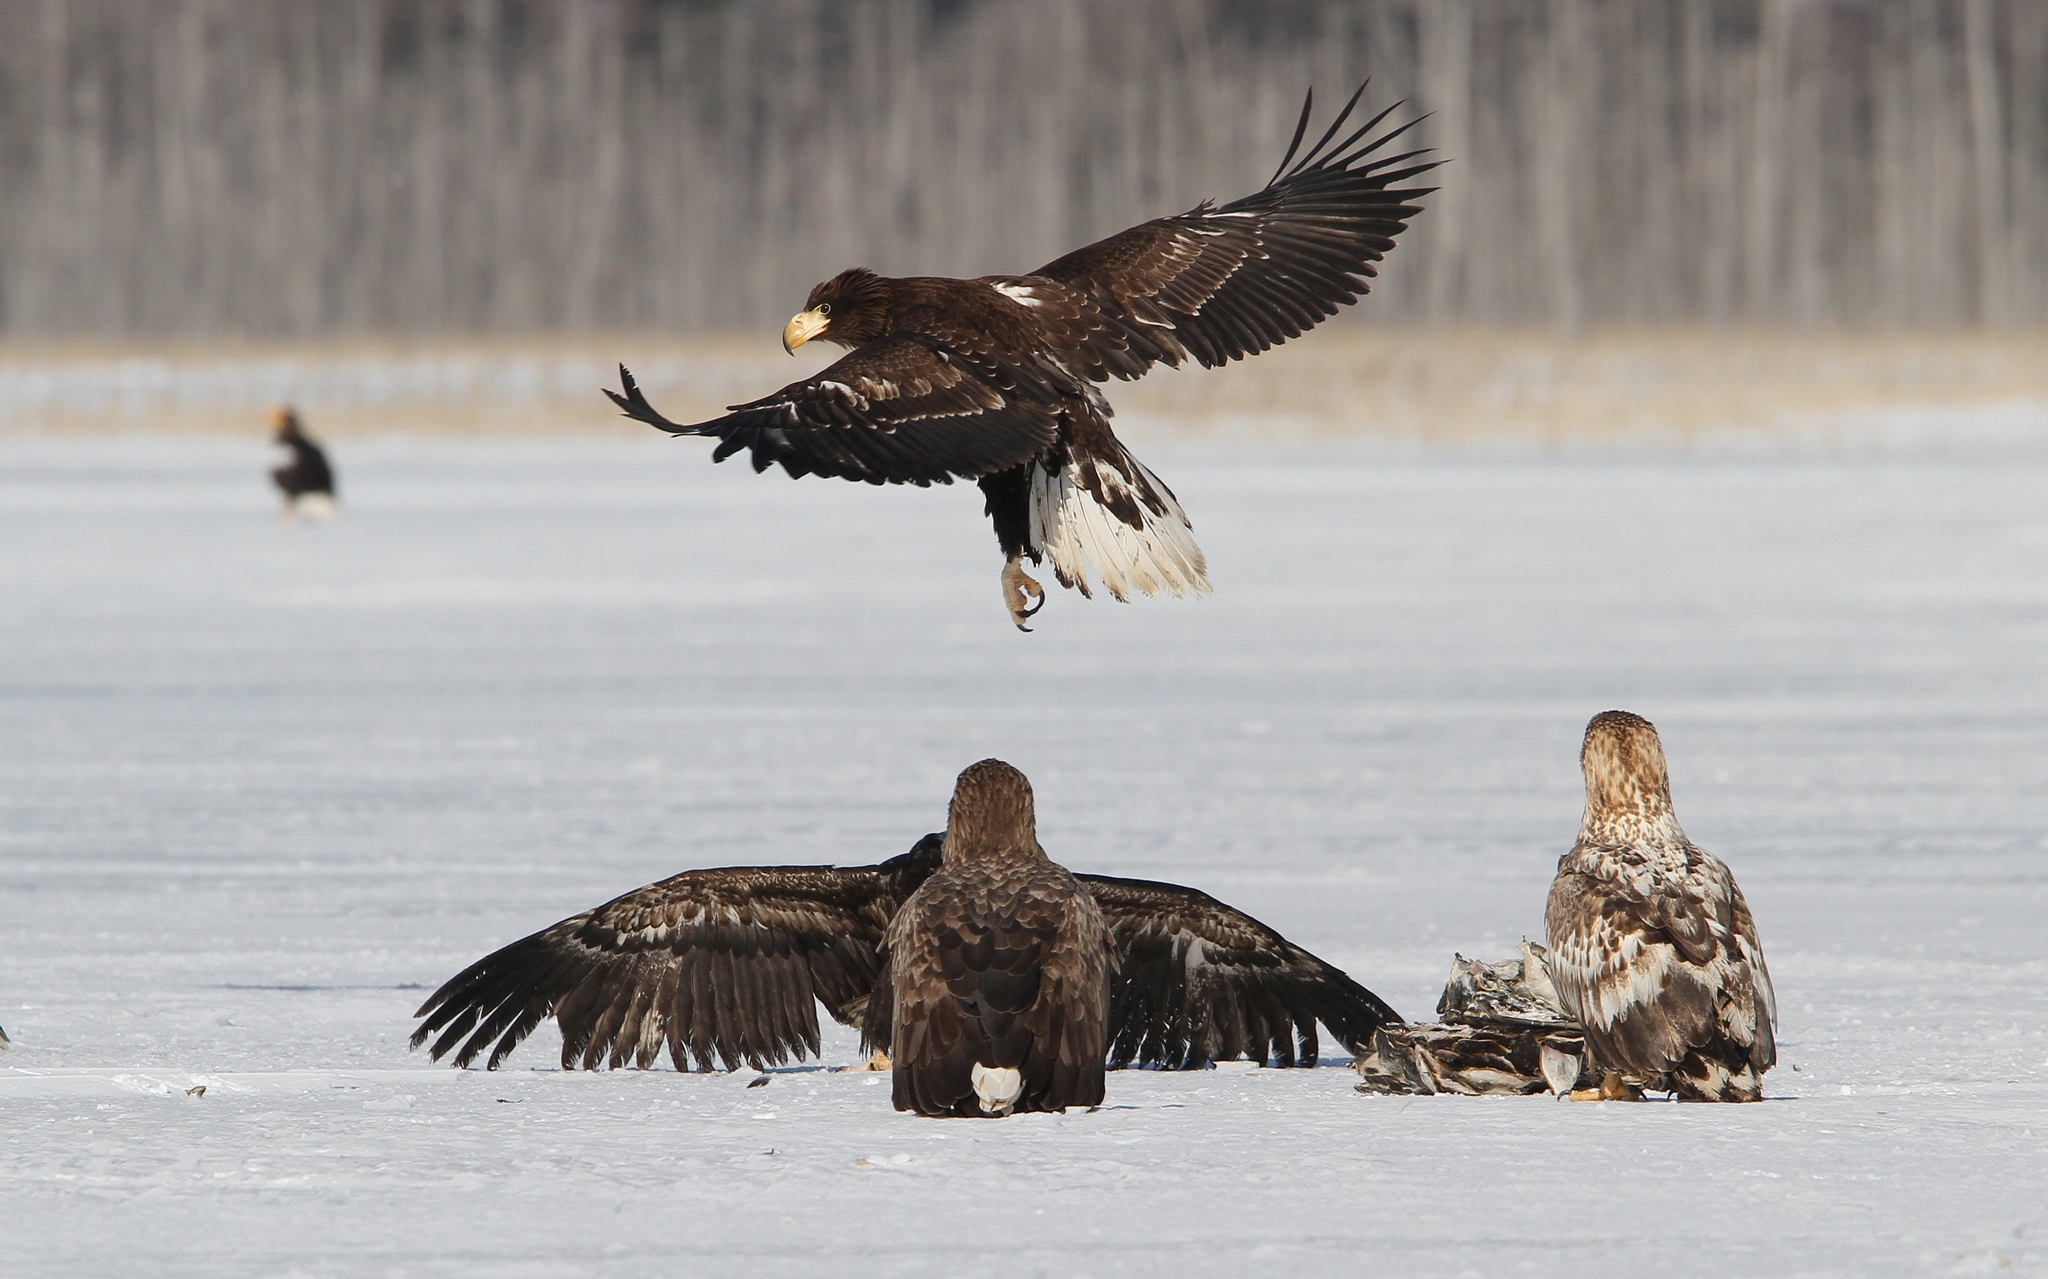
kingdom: Animalia
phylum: Chordata
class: Aves
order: Accipitriformes
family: Accipitridae
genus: Haliaeetus
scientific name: Haliaeetus pelagicus
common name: Steller's sea eagle
